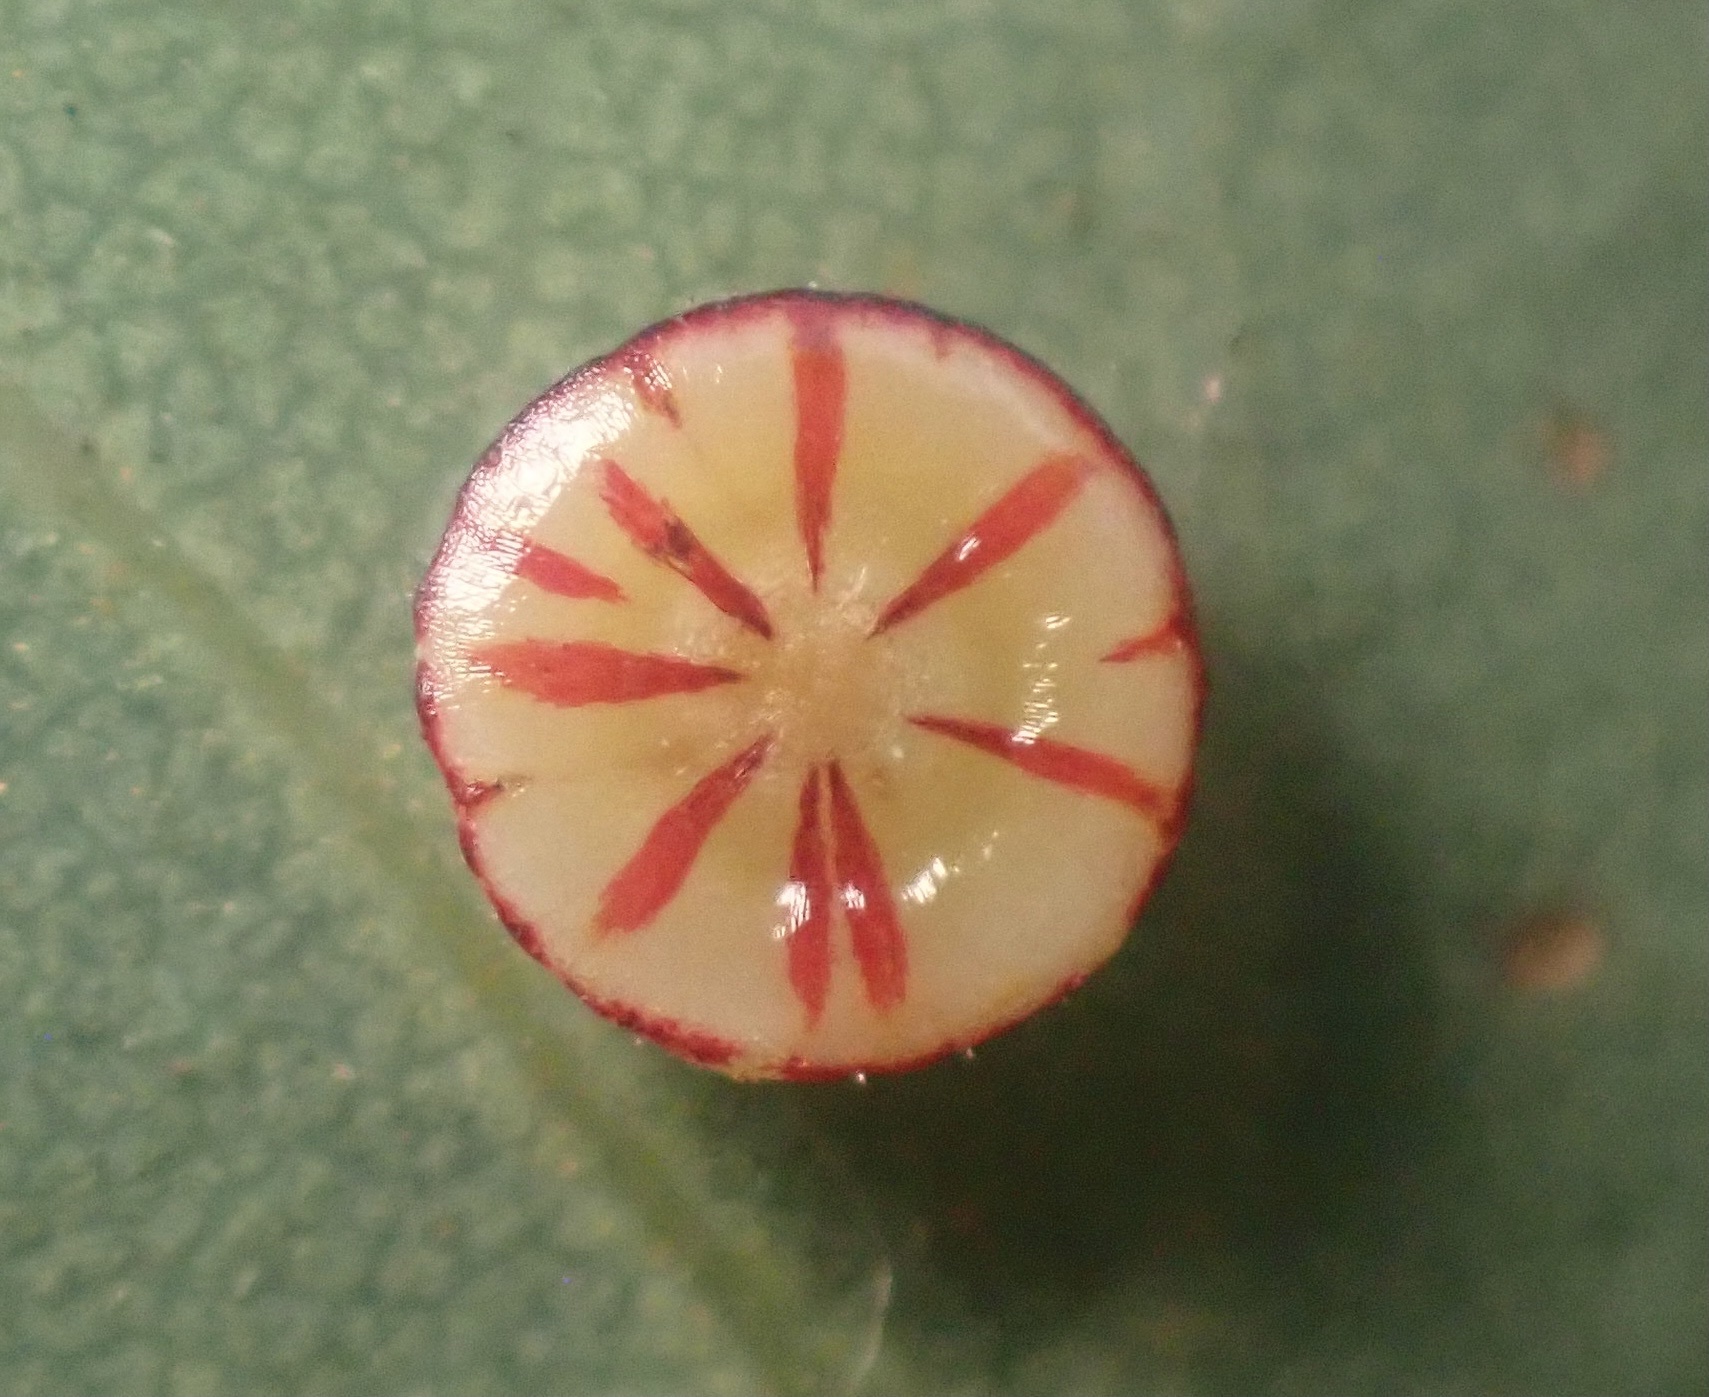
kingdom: Animalia
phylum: Arthropoda
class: Insecta
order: Hymenoptera
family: Cynipidae
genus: Andricus
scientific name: Andricus
